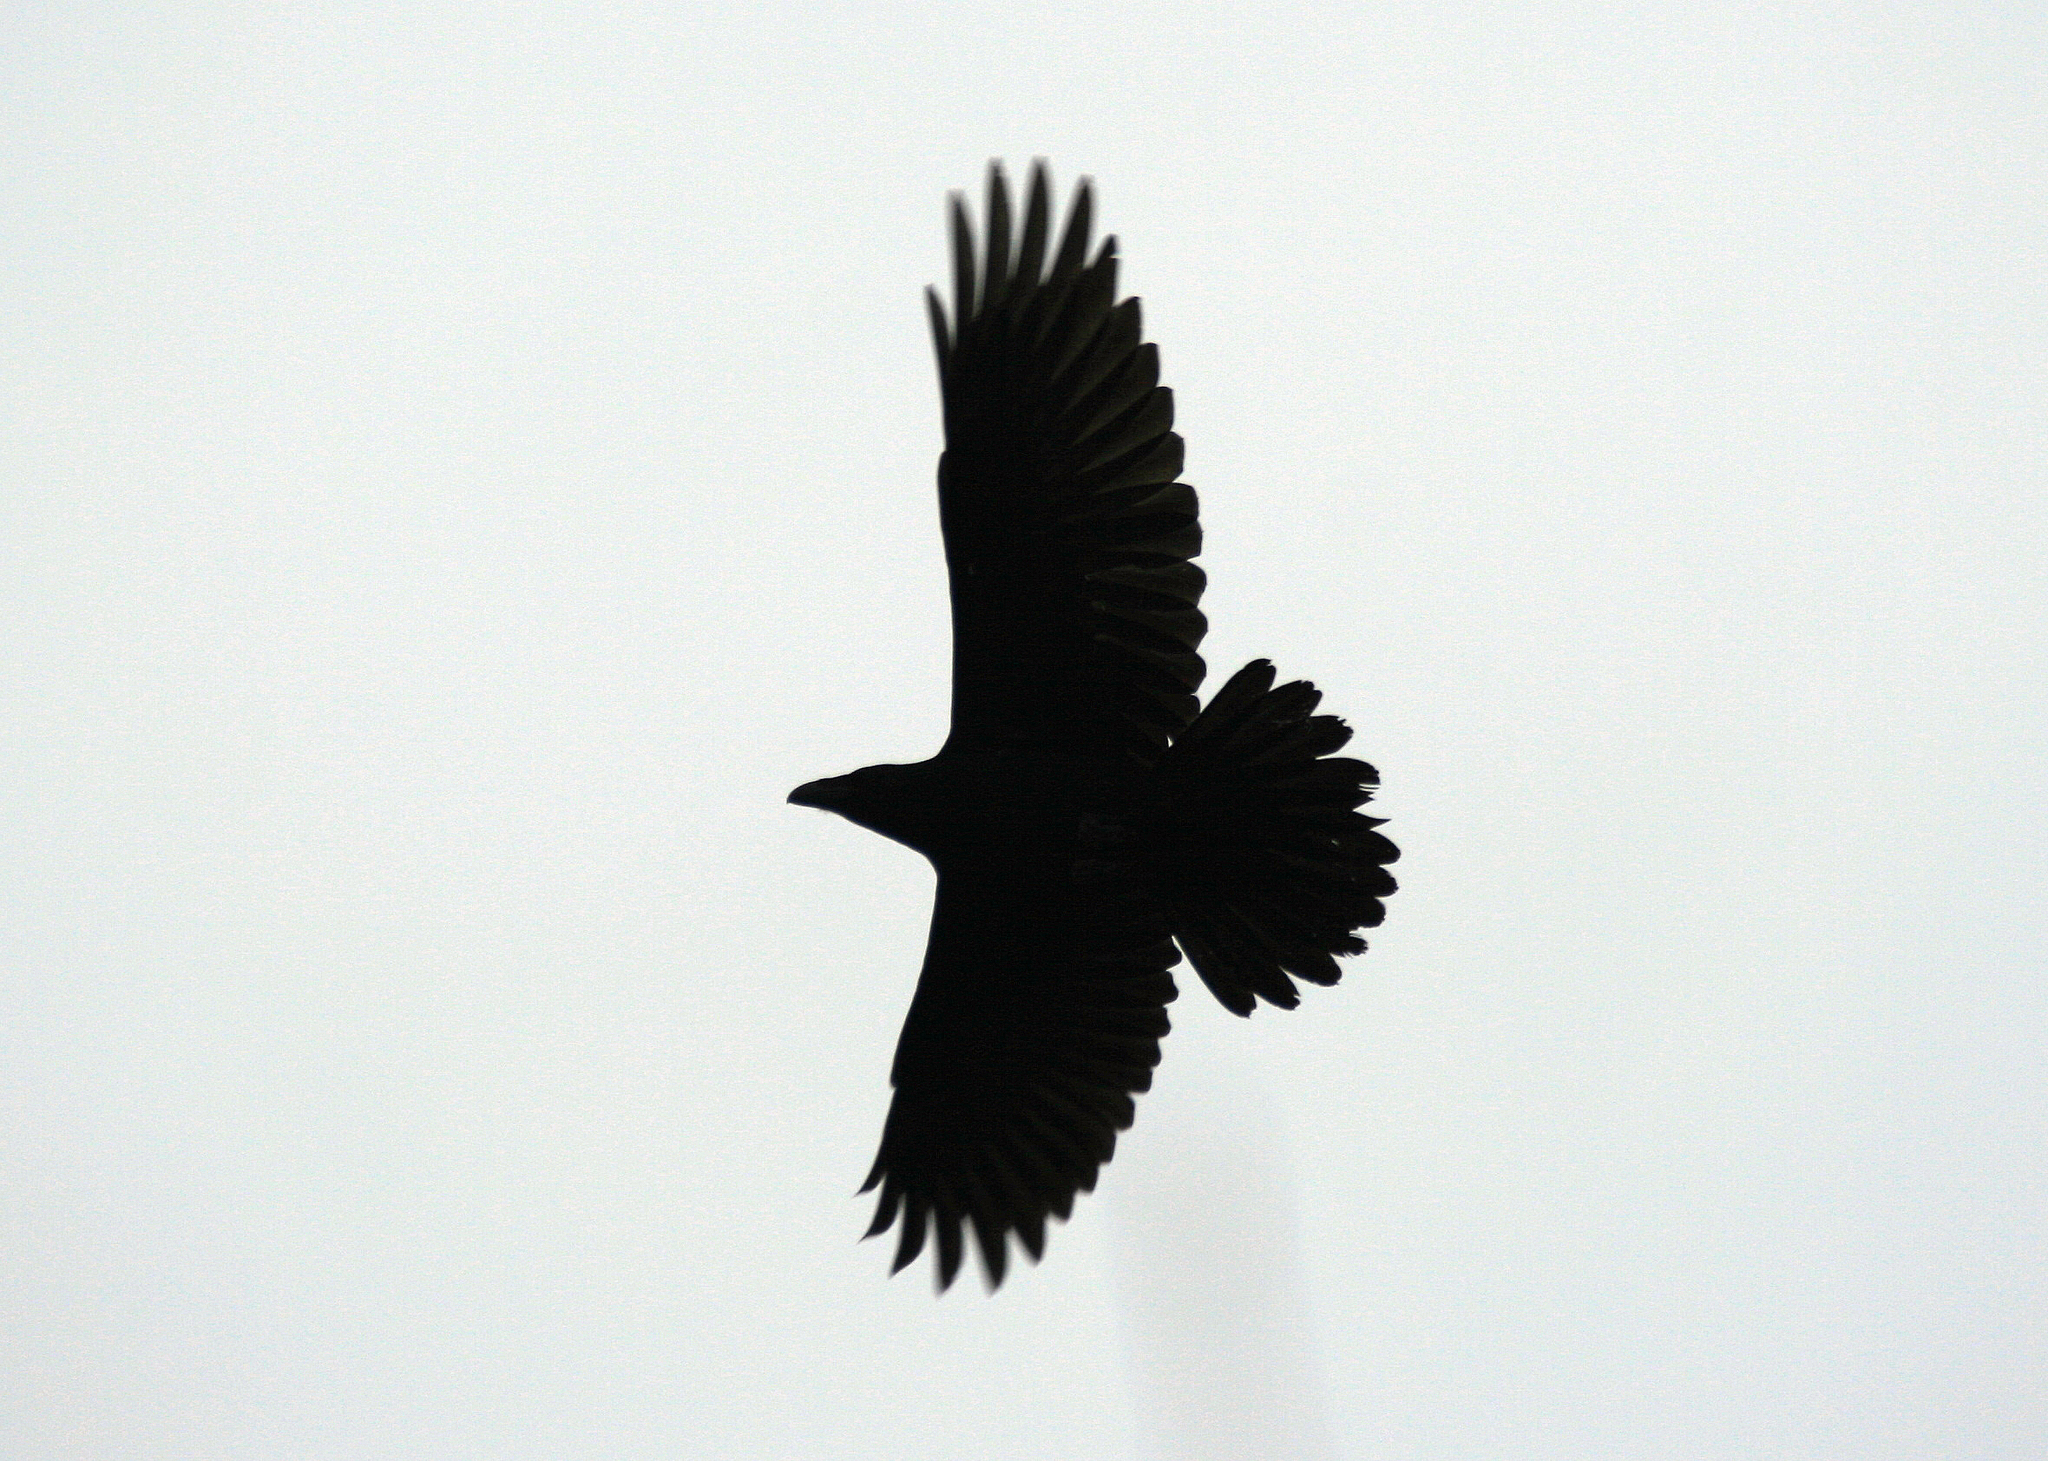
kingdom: Animalia
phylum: Chordata
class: Aves
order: Passeriformes
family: Corvidae
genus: Corvus
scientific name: Corvus corax
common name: Common raven
